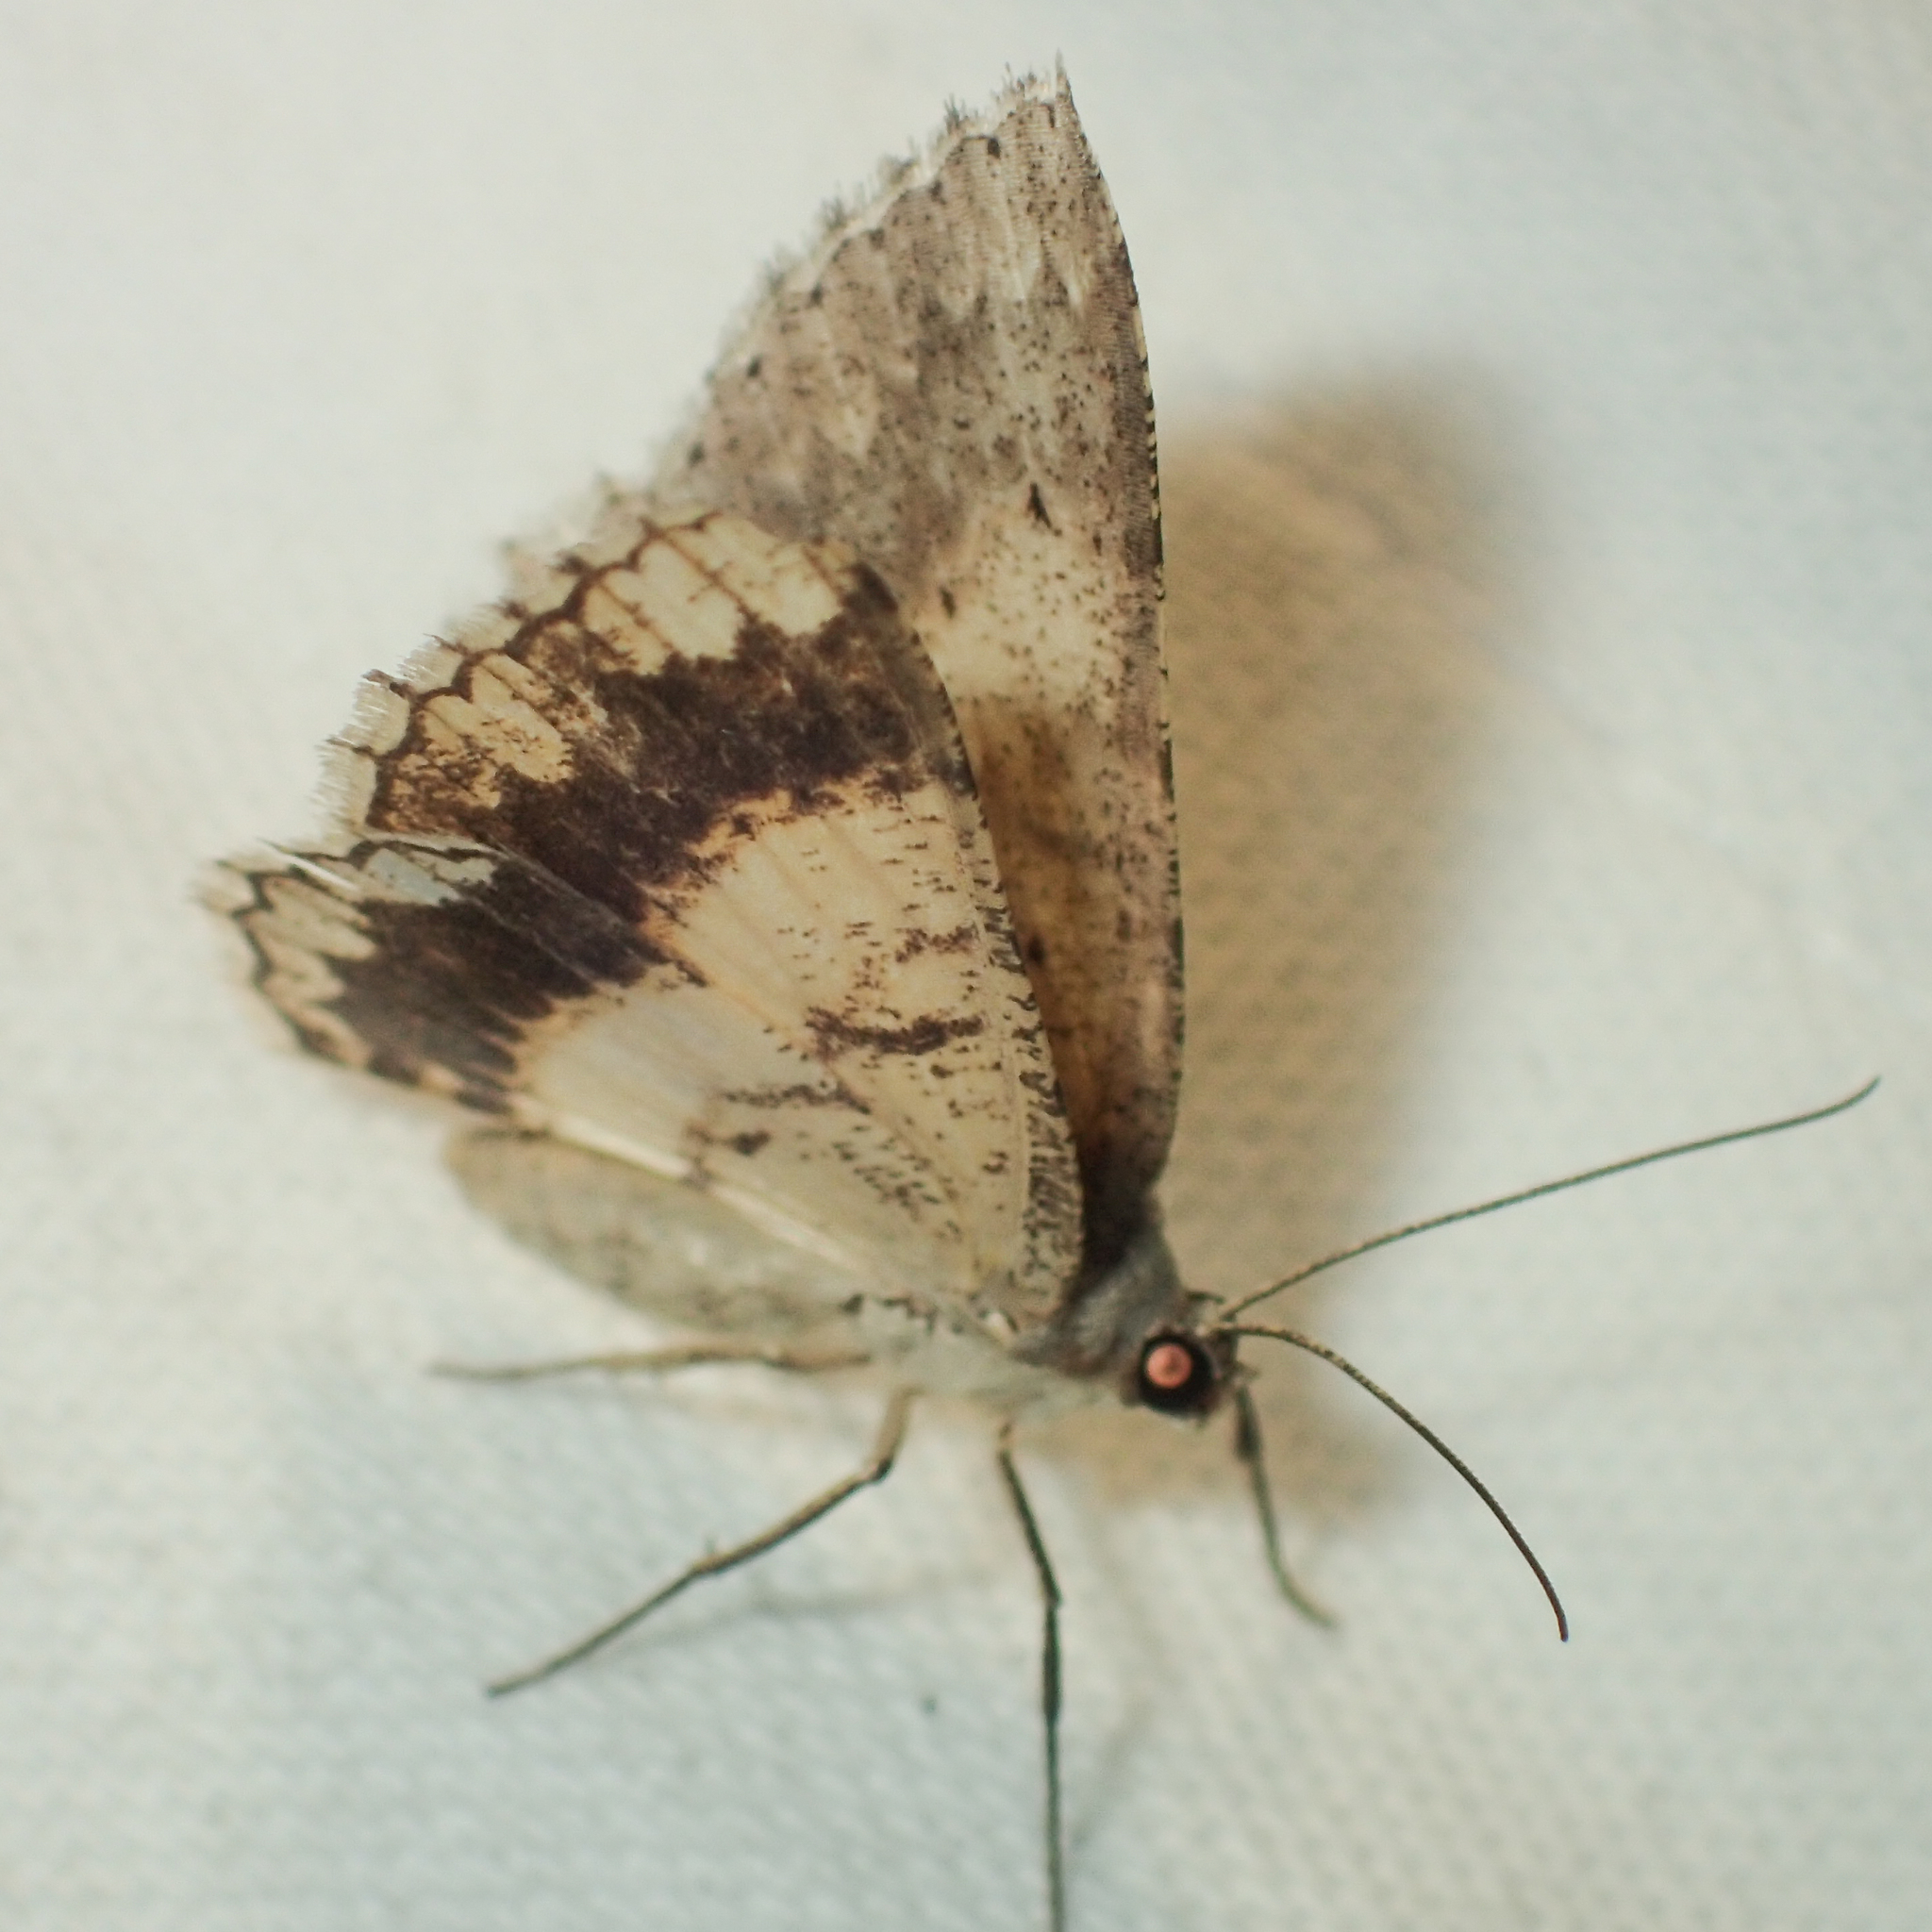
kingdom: Animalia
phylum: Arthropoda
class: Insecta
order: Lepidoptera
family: Geometridae
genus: Luxiaria
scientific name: Luxiaria submonstrata
